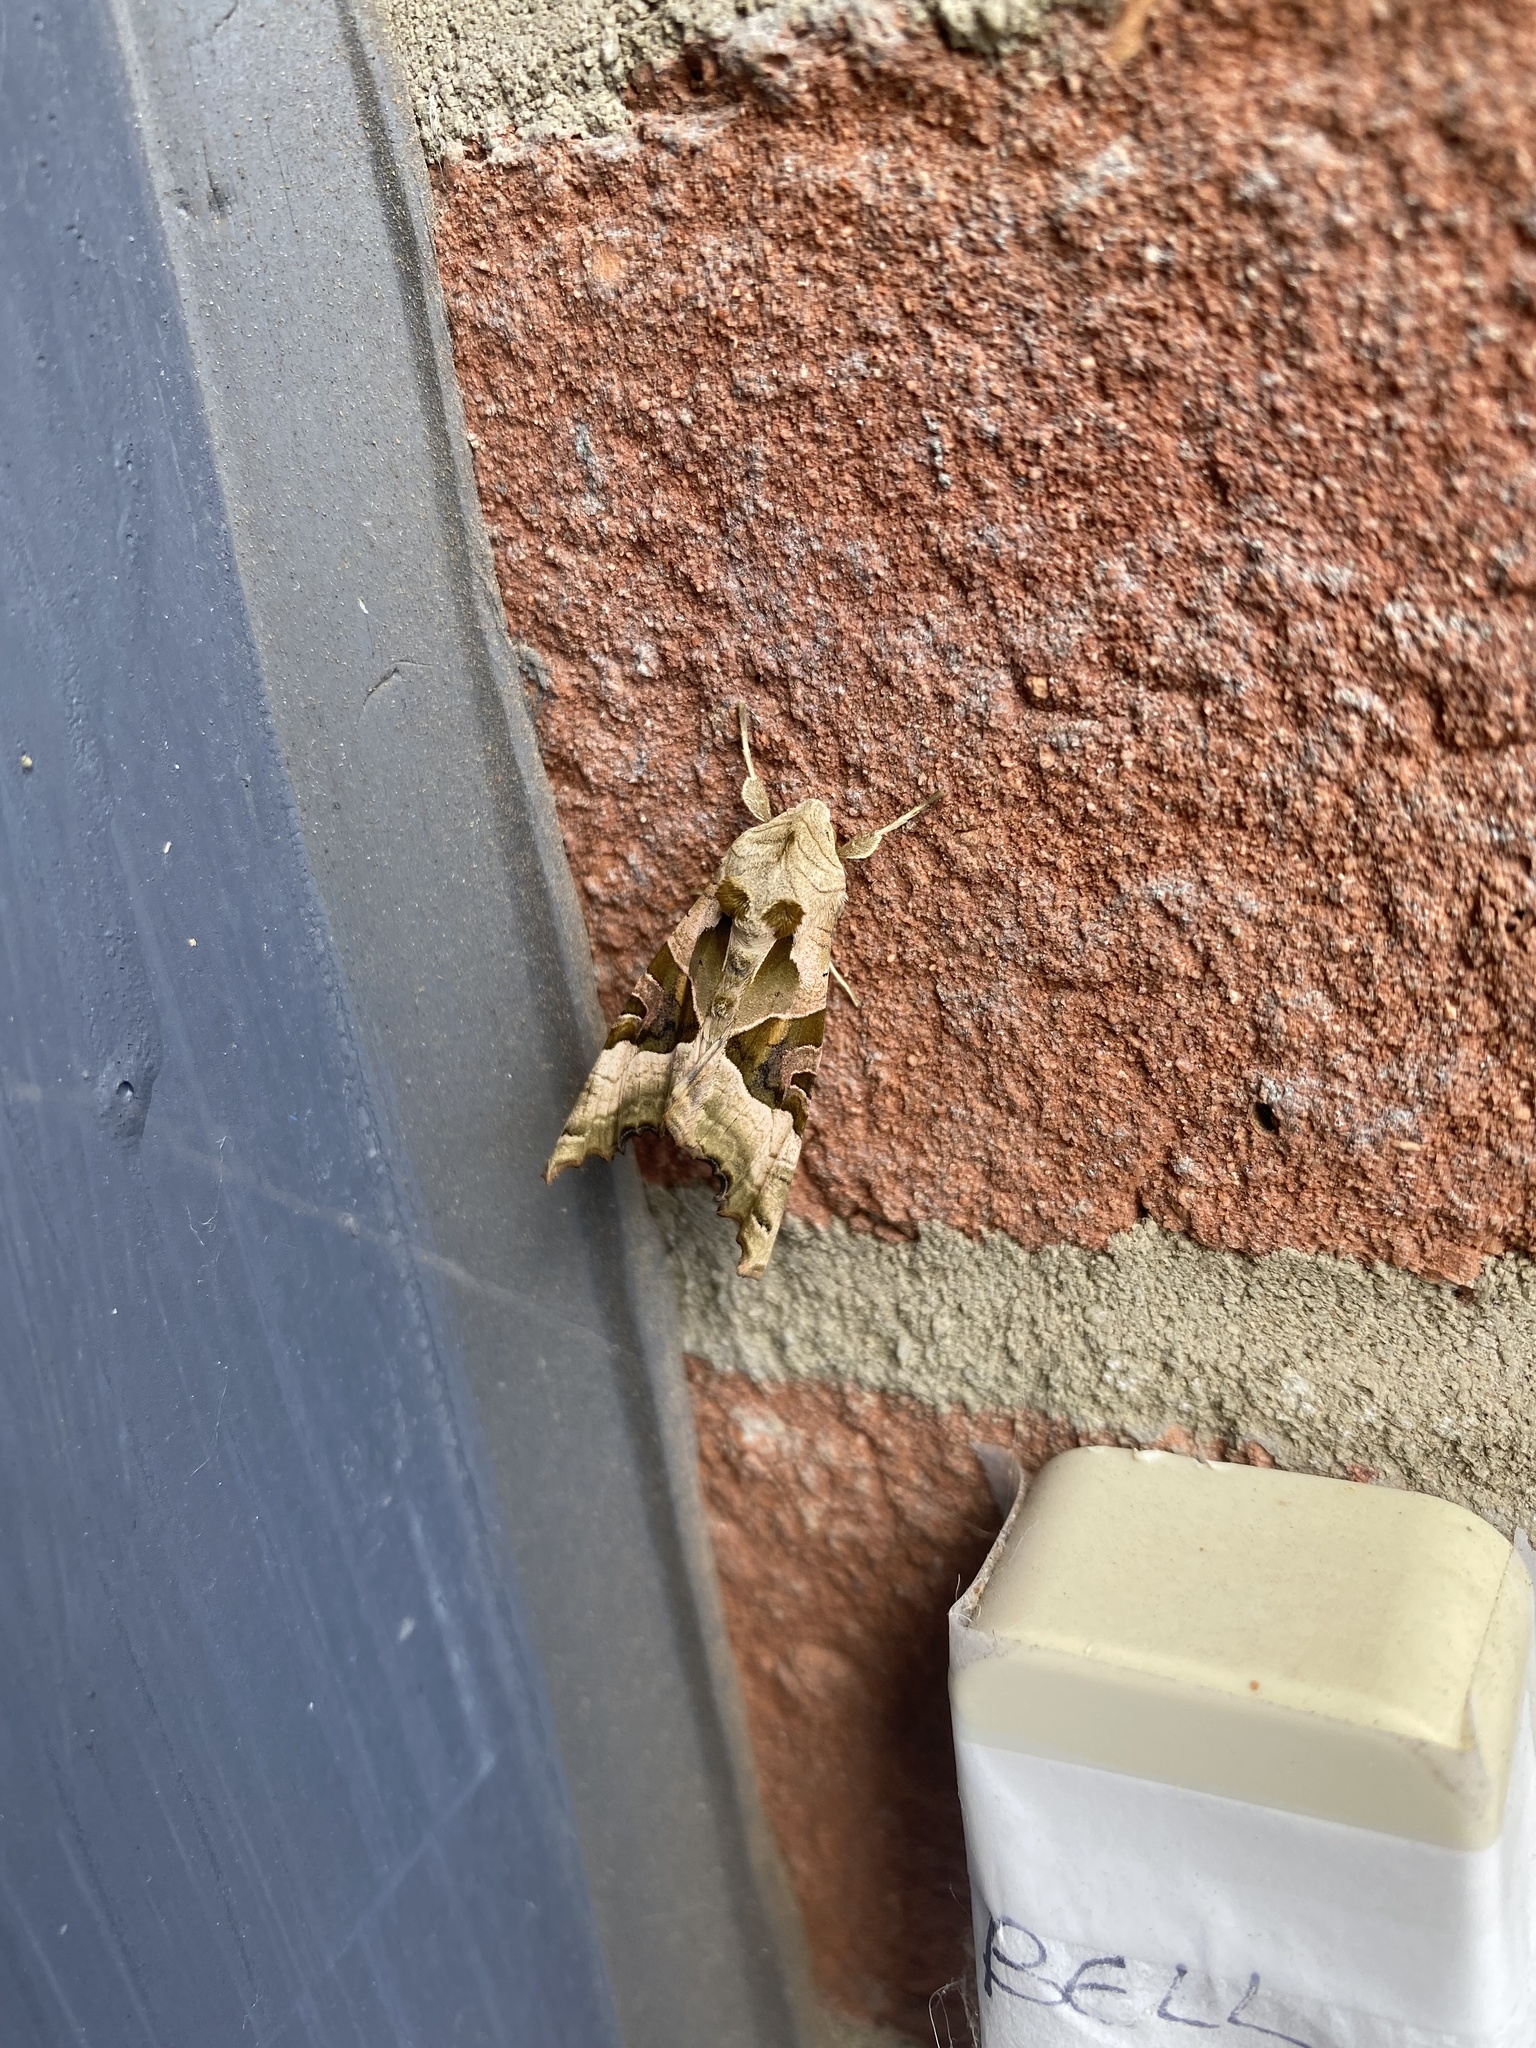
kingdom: Animalia
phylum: Arthropoda
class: Insecta
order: Lepidoptera
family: Noctuidae
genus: Phlogophora
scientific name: Phlogophora meticulosa
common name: Angle shades
